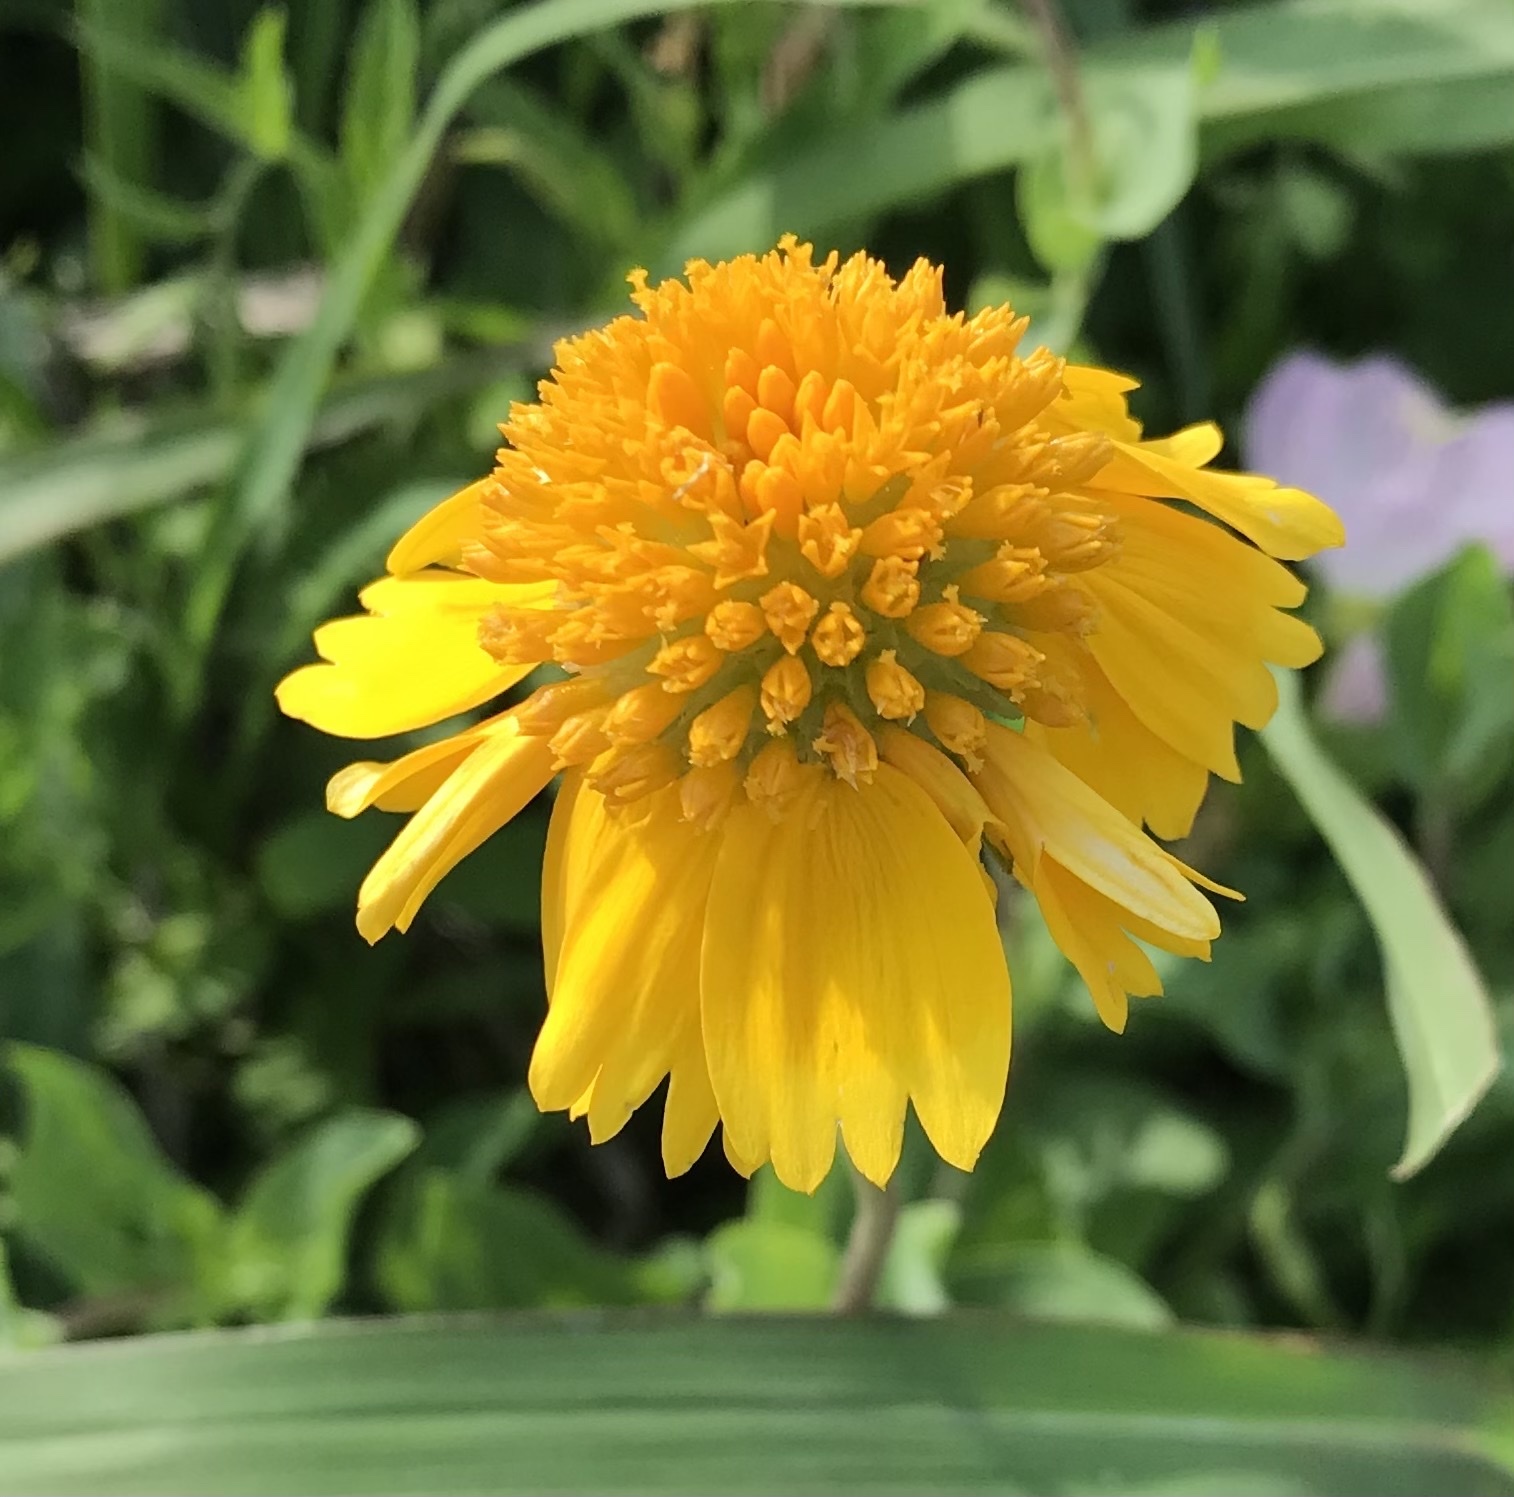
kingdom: Plantae
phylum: Tracheophyta
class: Magnoliopsida
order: Asterales
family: Asteraceae
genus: Amblyolepis
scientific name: Amblyolepis setigera
